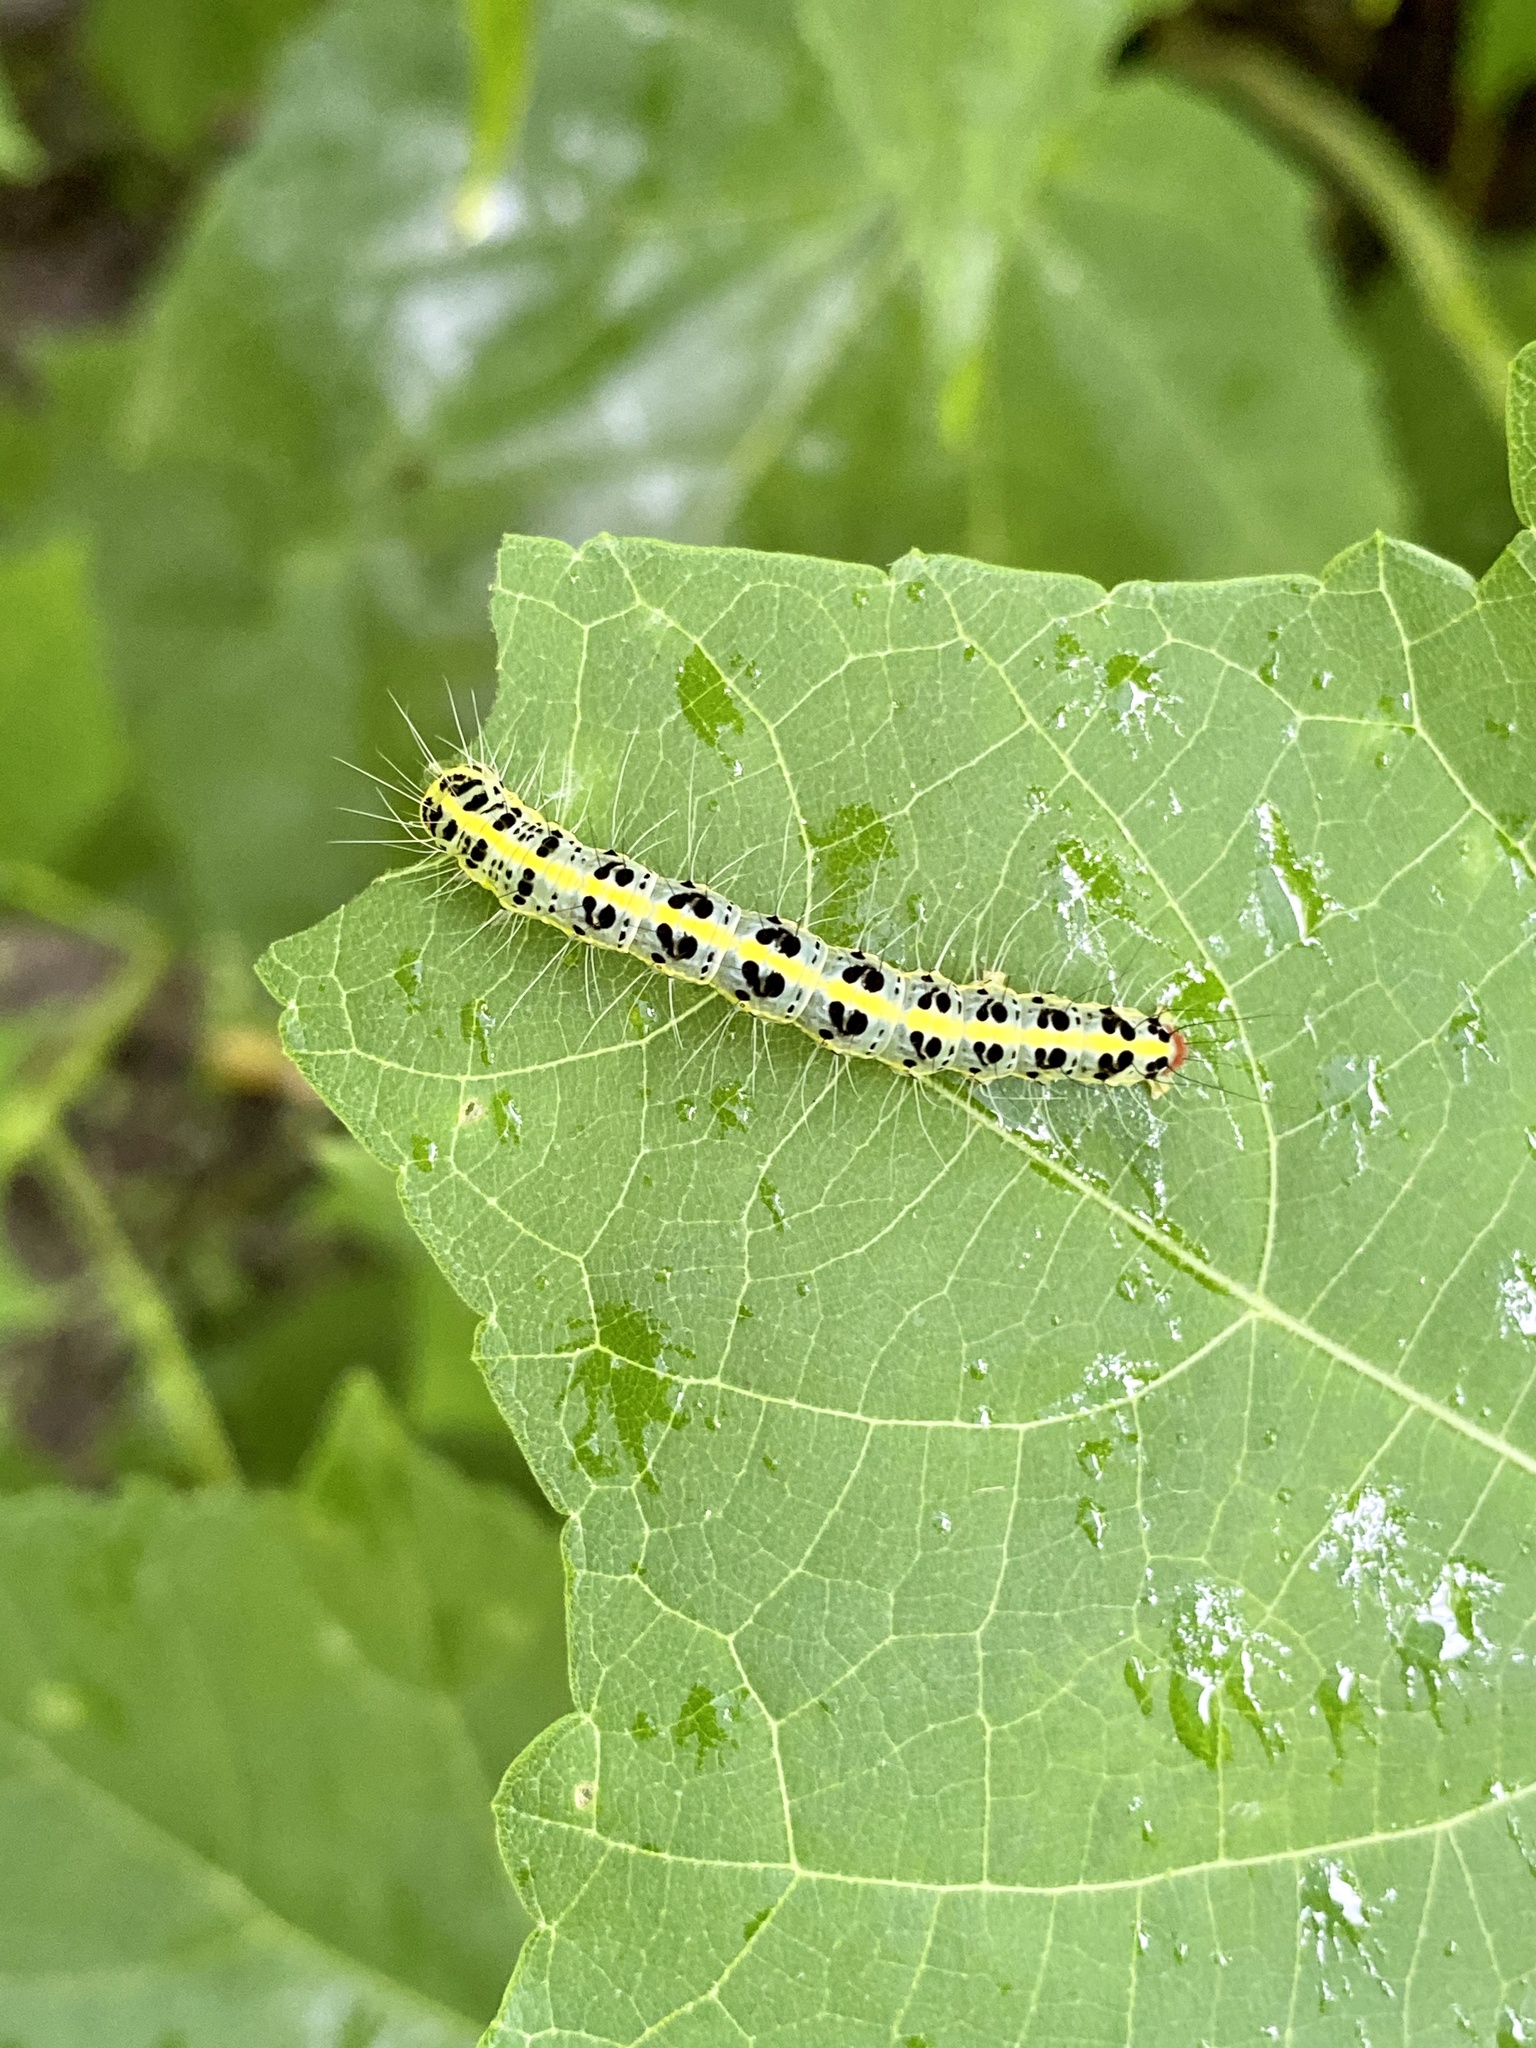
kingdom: Animalia
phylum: Arthropoda
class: Insecta
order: Lepidoptera
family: Nolidae
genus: Xanthodes
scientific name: Xanthodes transversa
